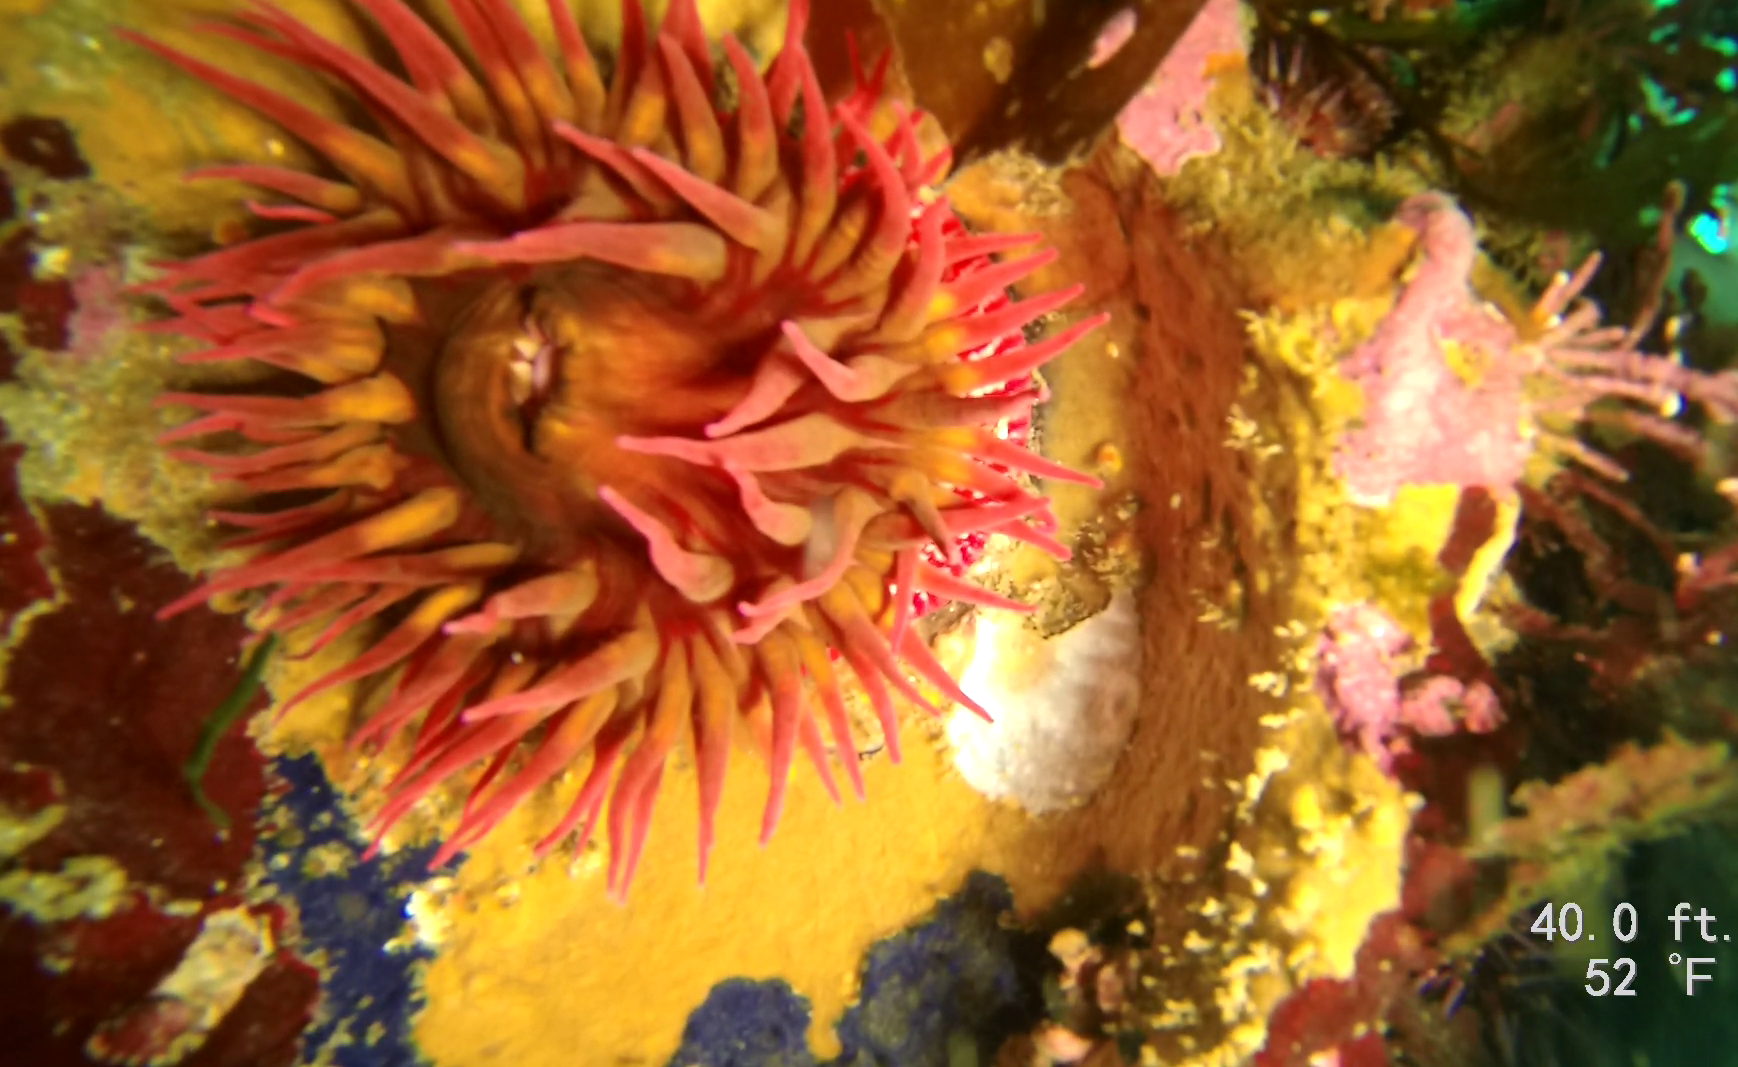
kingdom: Animalia
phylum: Cnidaria
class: Anthozoa
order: Actiniaria
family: Actiniidae
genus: Cribrinopsis
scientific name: Cribrinopsis albopunctata
